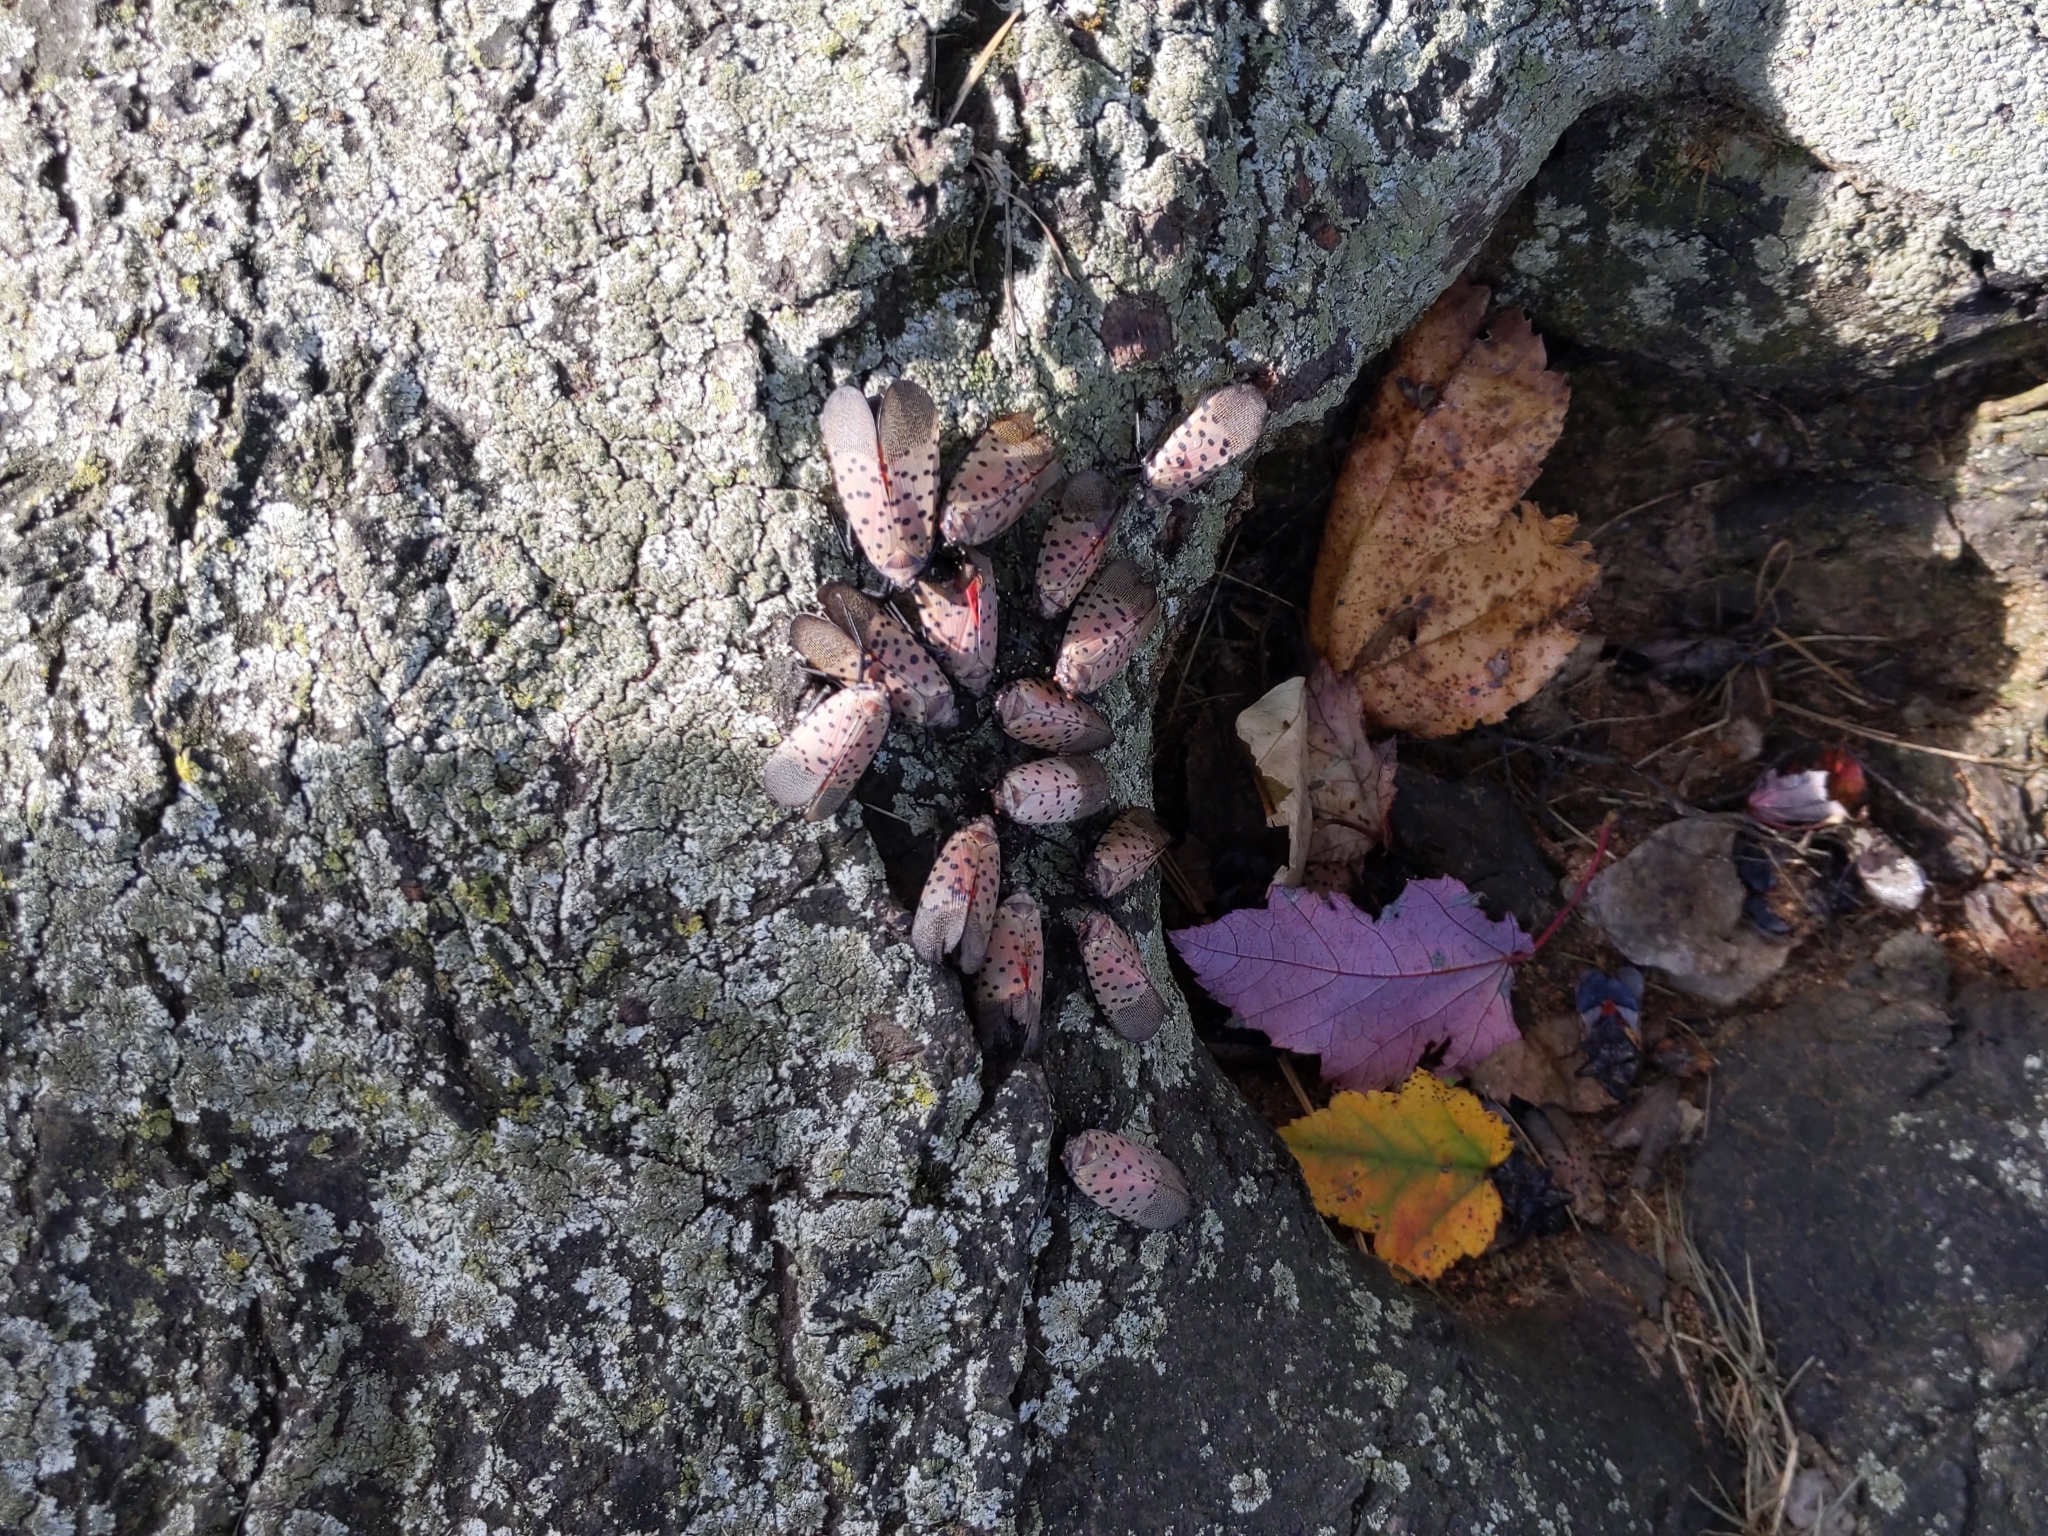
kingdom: Animalia
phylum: Arthropoda
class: Insecta
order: Hemiptera
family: Fulgoridae
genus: Lycorma
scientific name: Lycorma delicatula
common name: Spotted lanternfly
